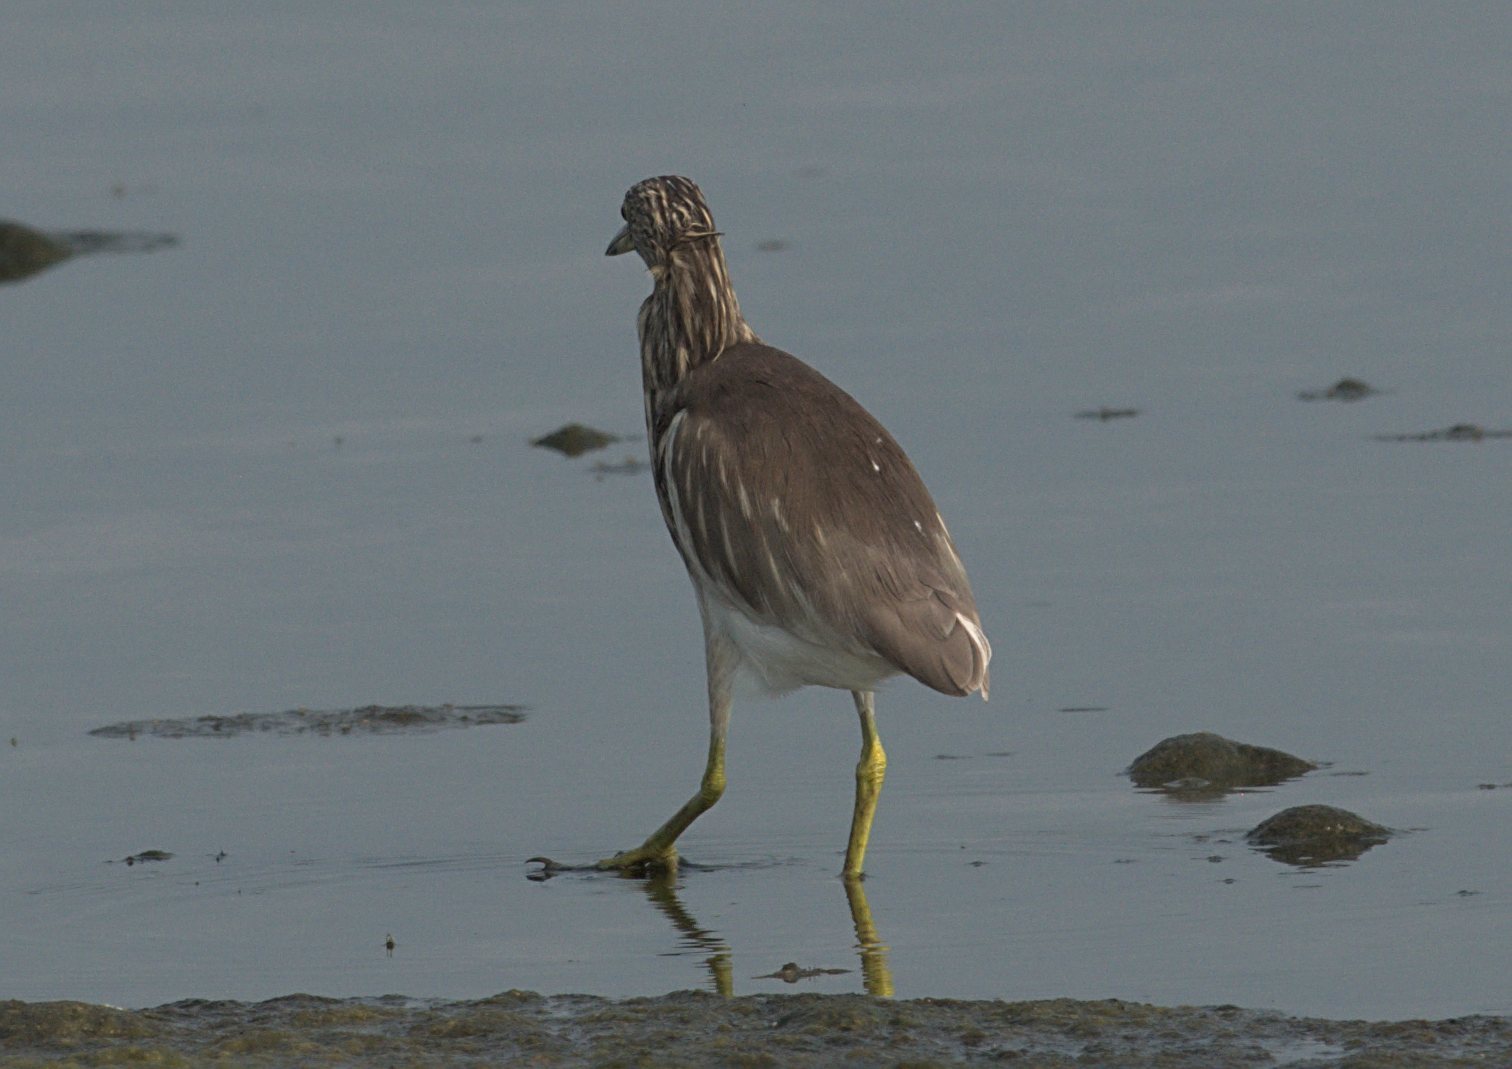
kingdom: Animalia
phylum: Chordata
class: Aves
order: Pelecaniformes
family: Ardeidae
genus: Ardeola
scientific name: Ardeola grayii
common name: Indian pond heron
